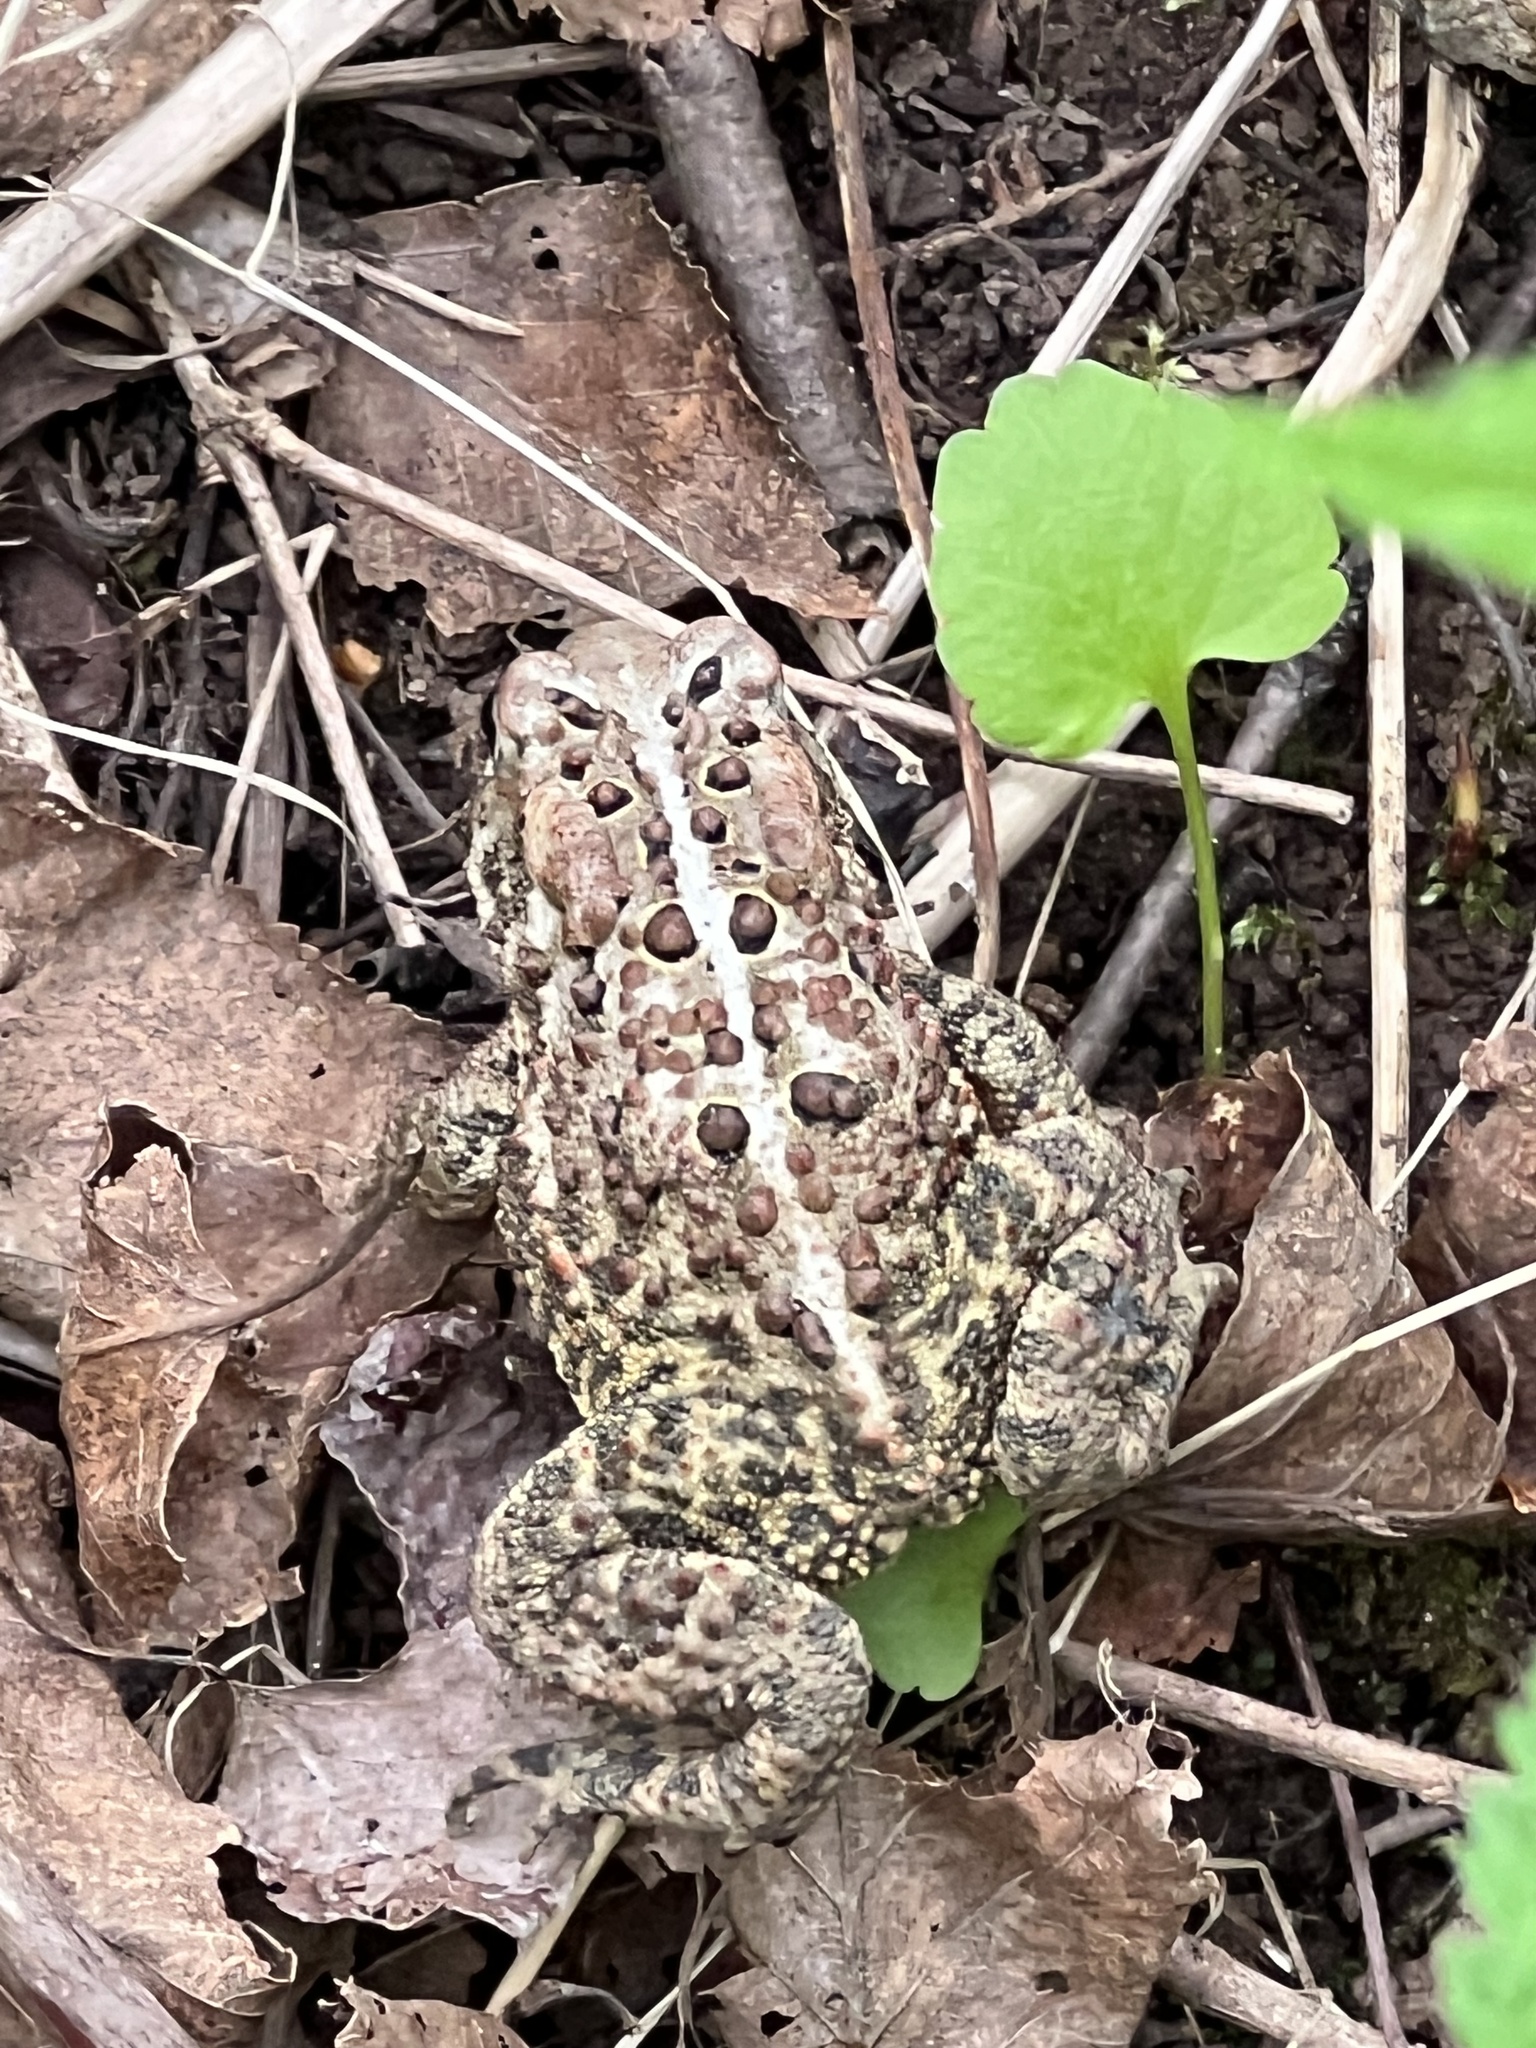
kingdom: Animalia
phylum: Chordata
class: Amphibia
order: Anura
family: Bufonidae
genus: Anaxyrus
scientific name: Anaxyrus americanus
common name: American toad
